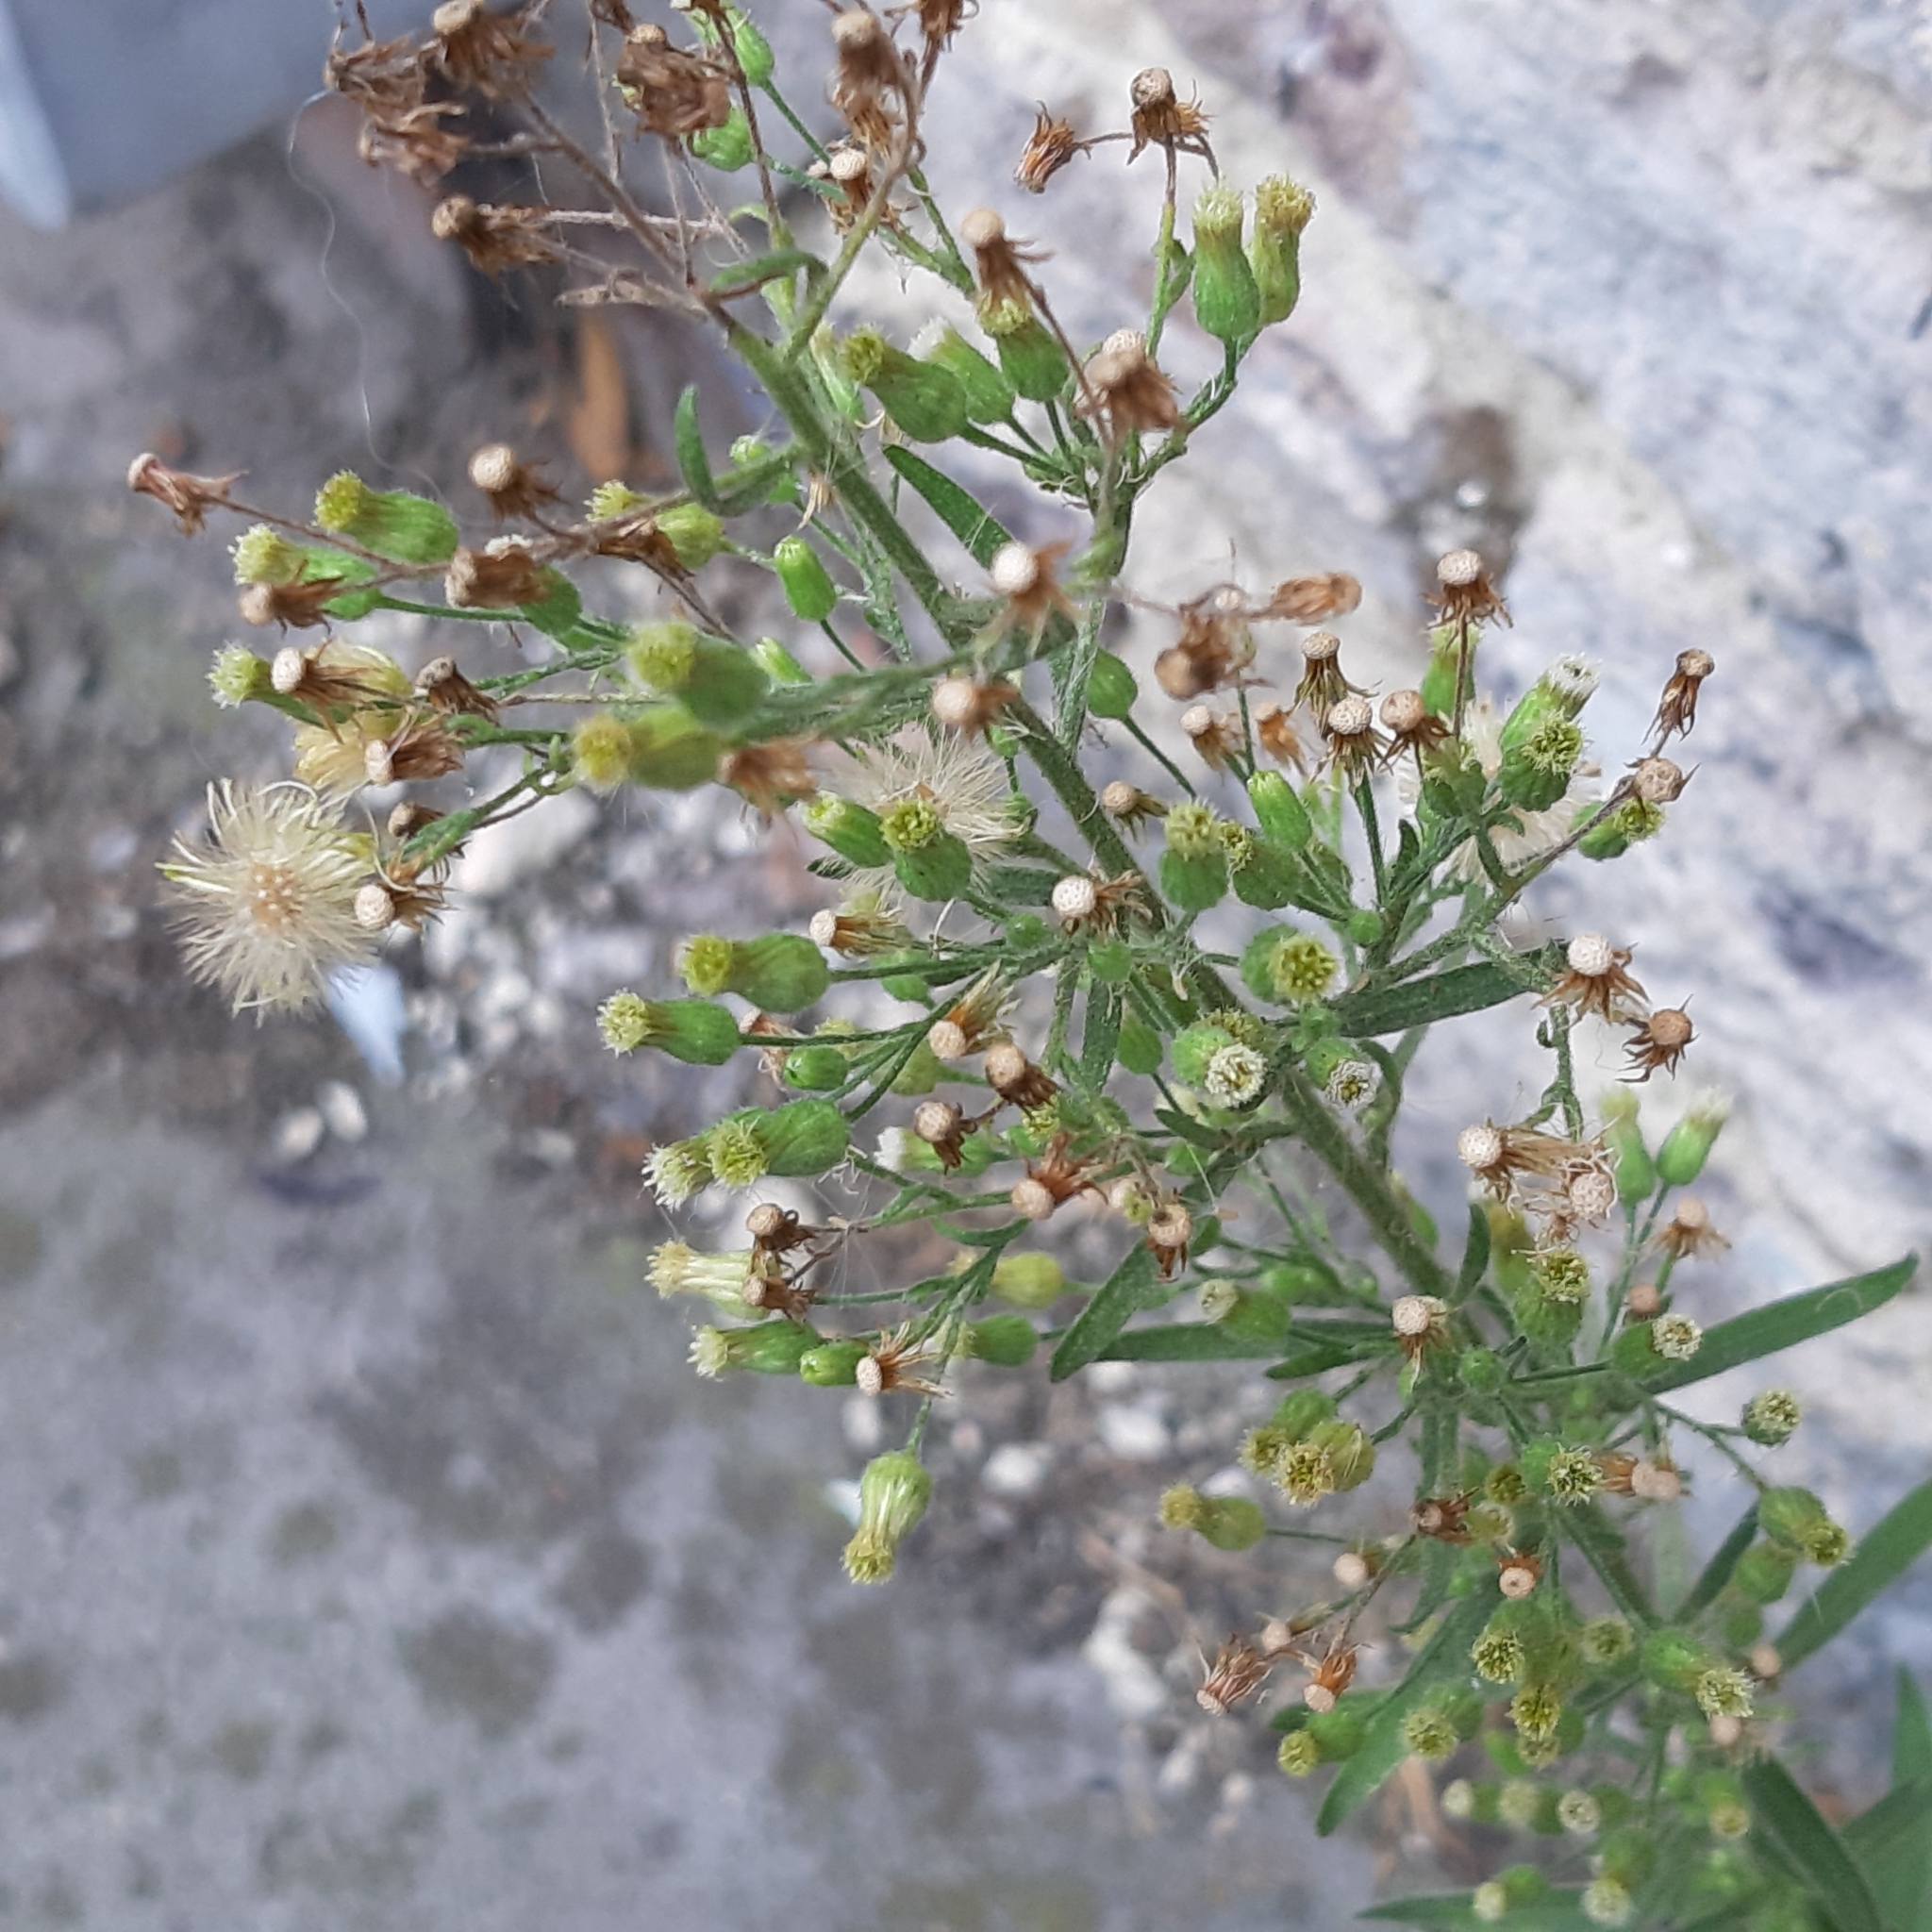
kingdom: Plantae
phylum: Tracheophyta
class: Magnoliopsida
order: Asterales
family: Asteraceae
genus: Erigeron
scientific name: Erigeron sumatrensis
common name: Daisy
